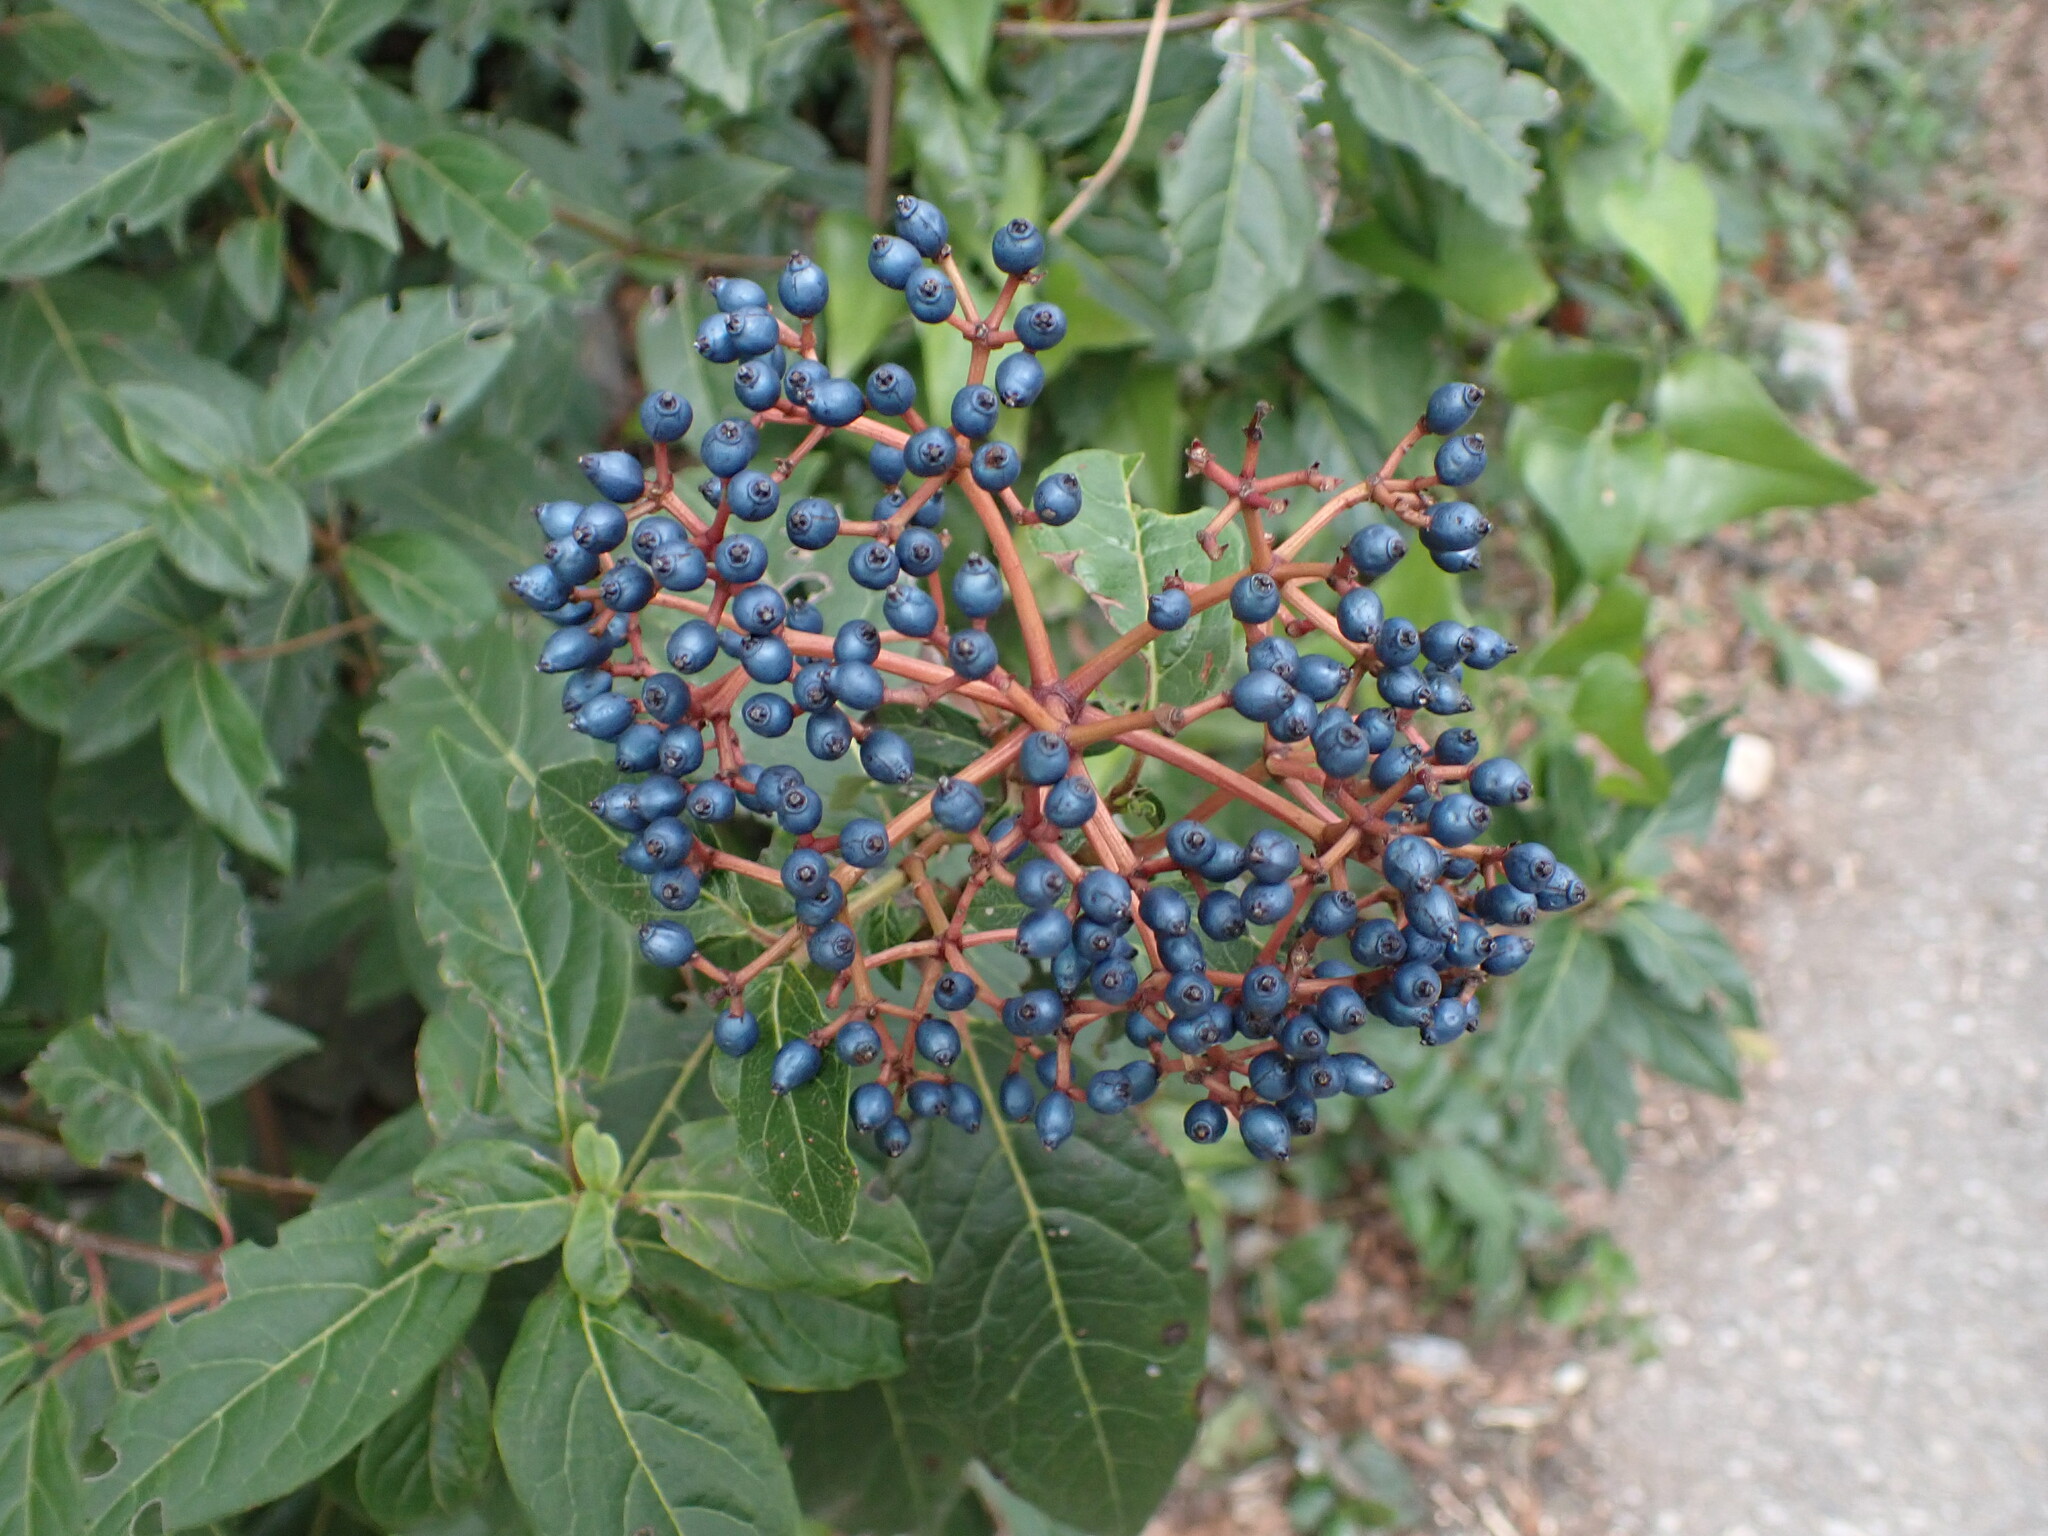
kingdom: Plantae
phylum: Tracheophyta
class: Magnoliopsida
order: Dipsacales
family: Viburnaceae
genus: Viburnum
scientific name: Viburnum tinus
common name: Laurustinus
